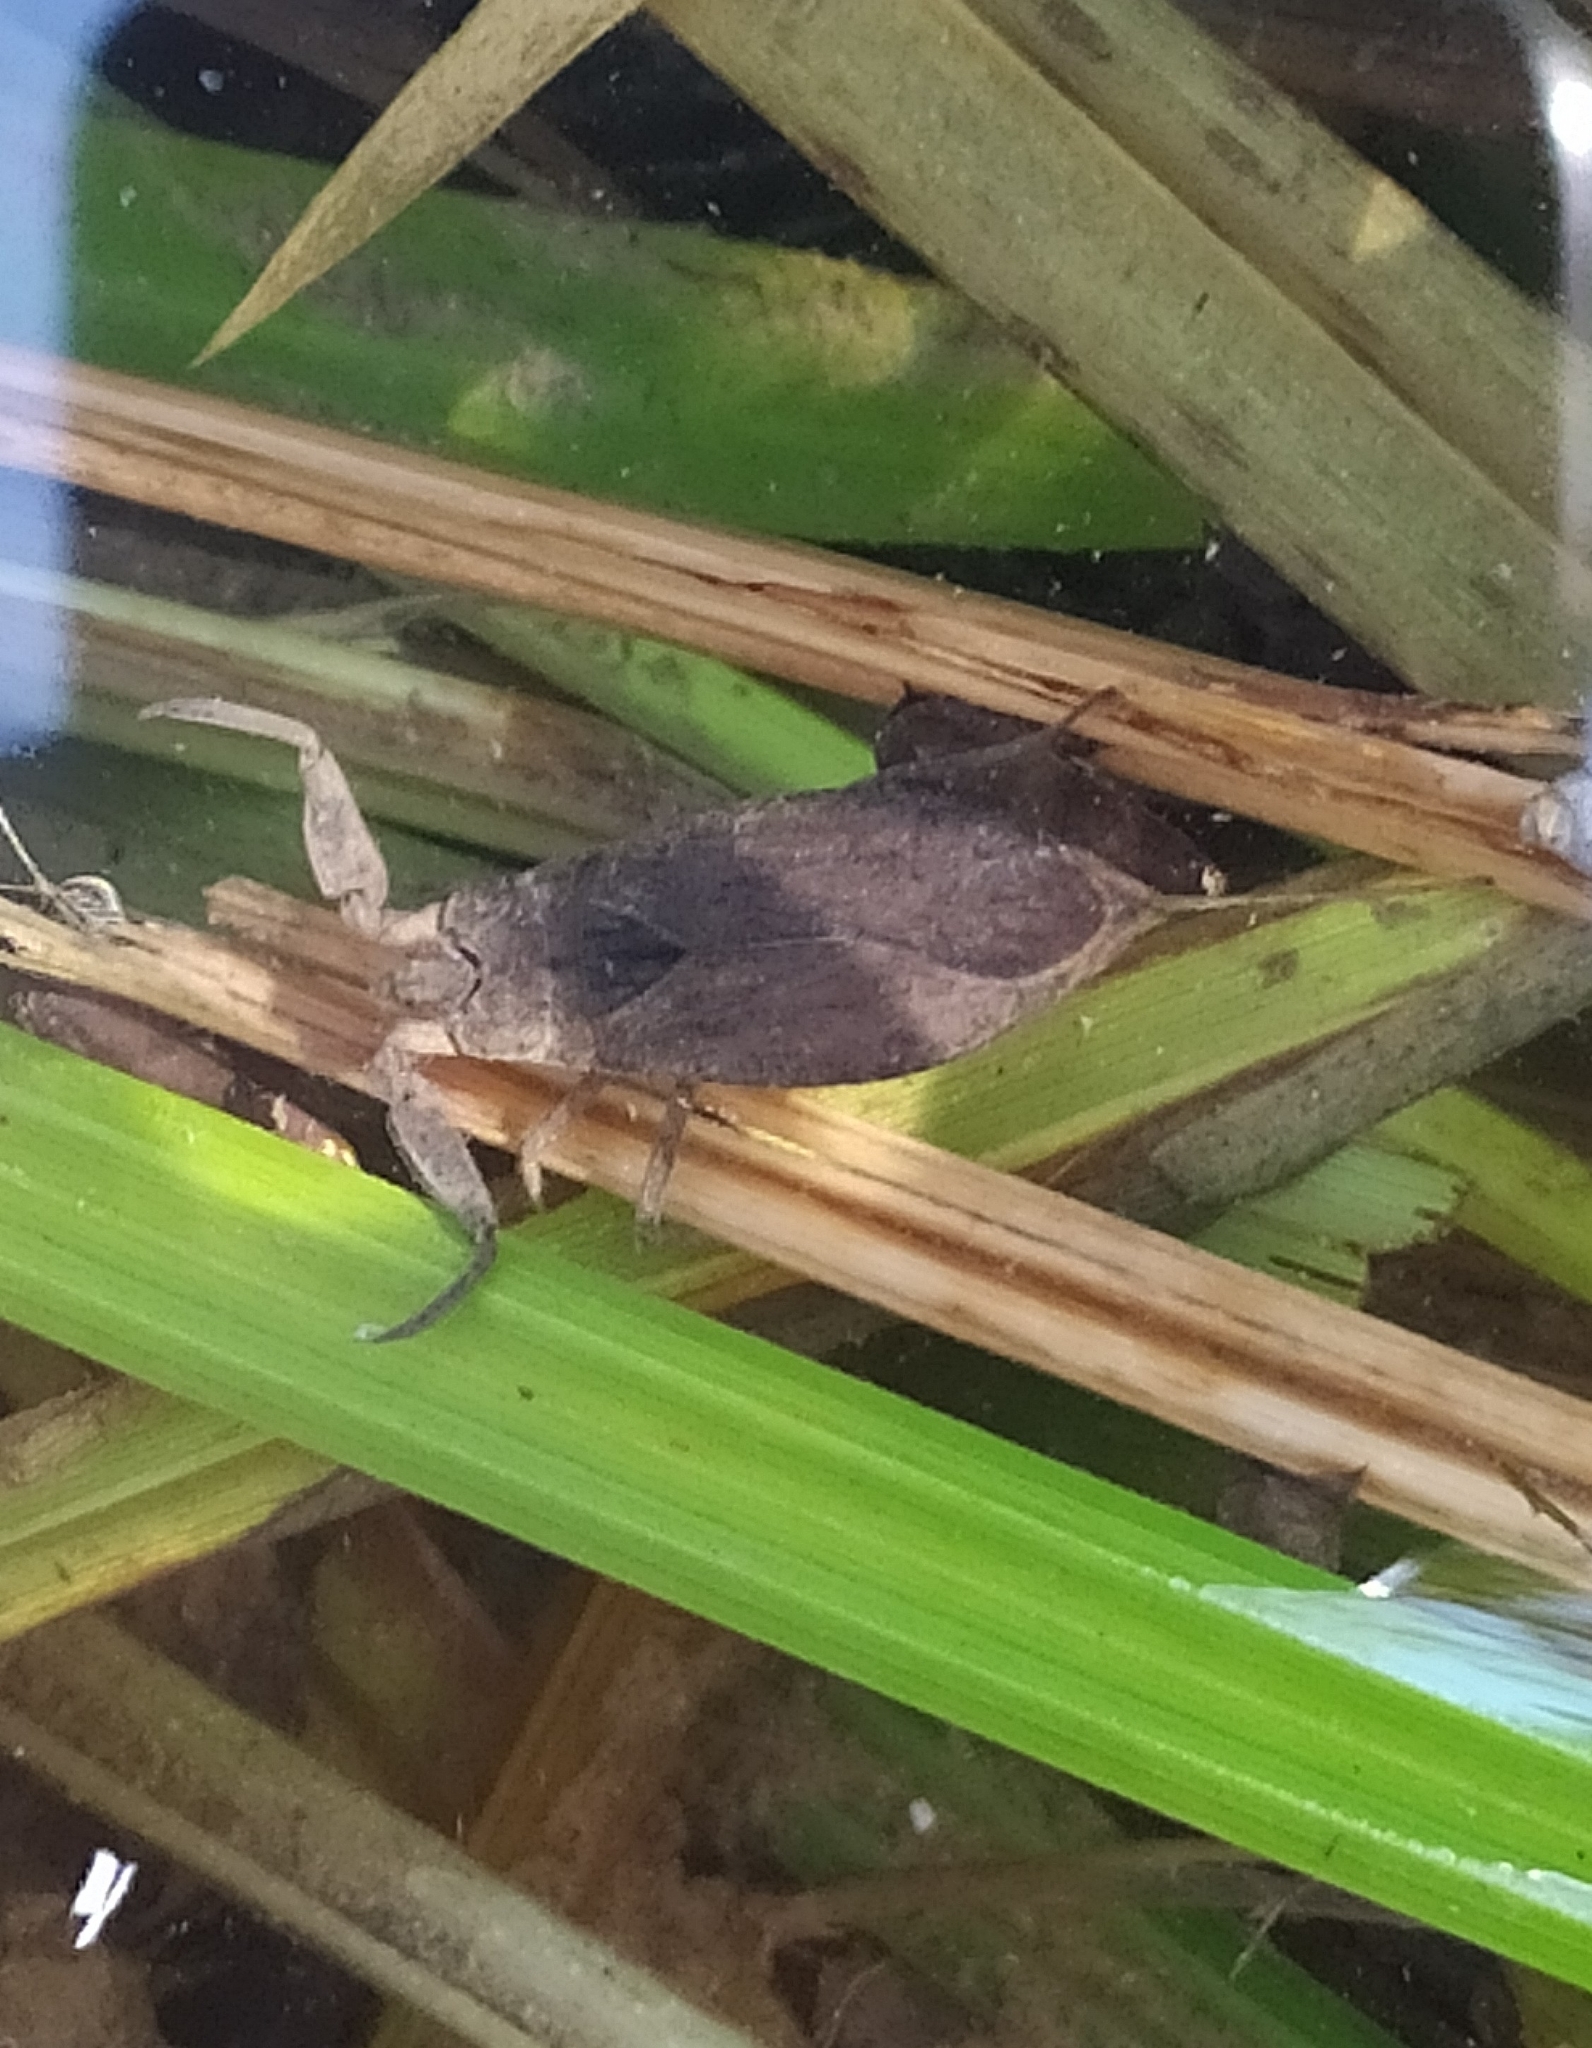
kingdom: Animalia
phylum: Arthropoda
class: Insecta
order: Hemiptera
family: Nepidae
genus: Nepa
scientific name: Nepa cinerea
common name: Water scorpion
